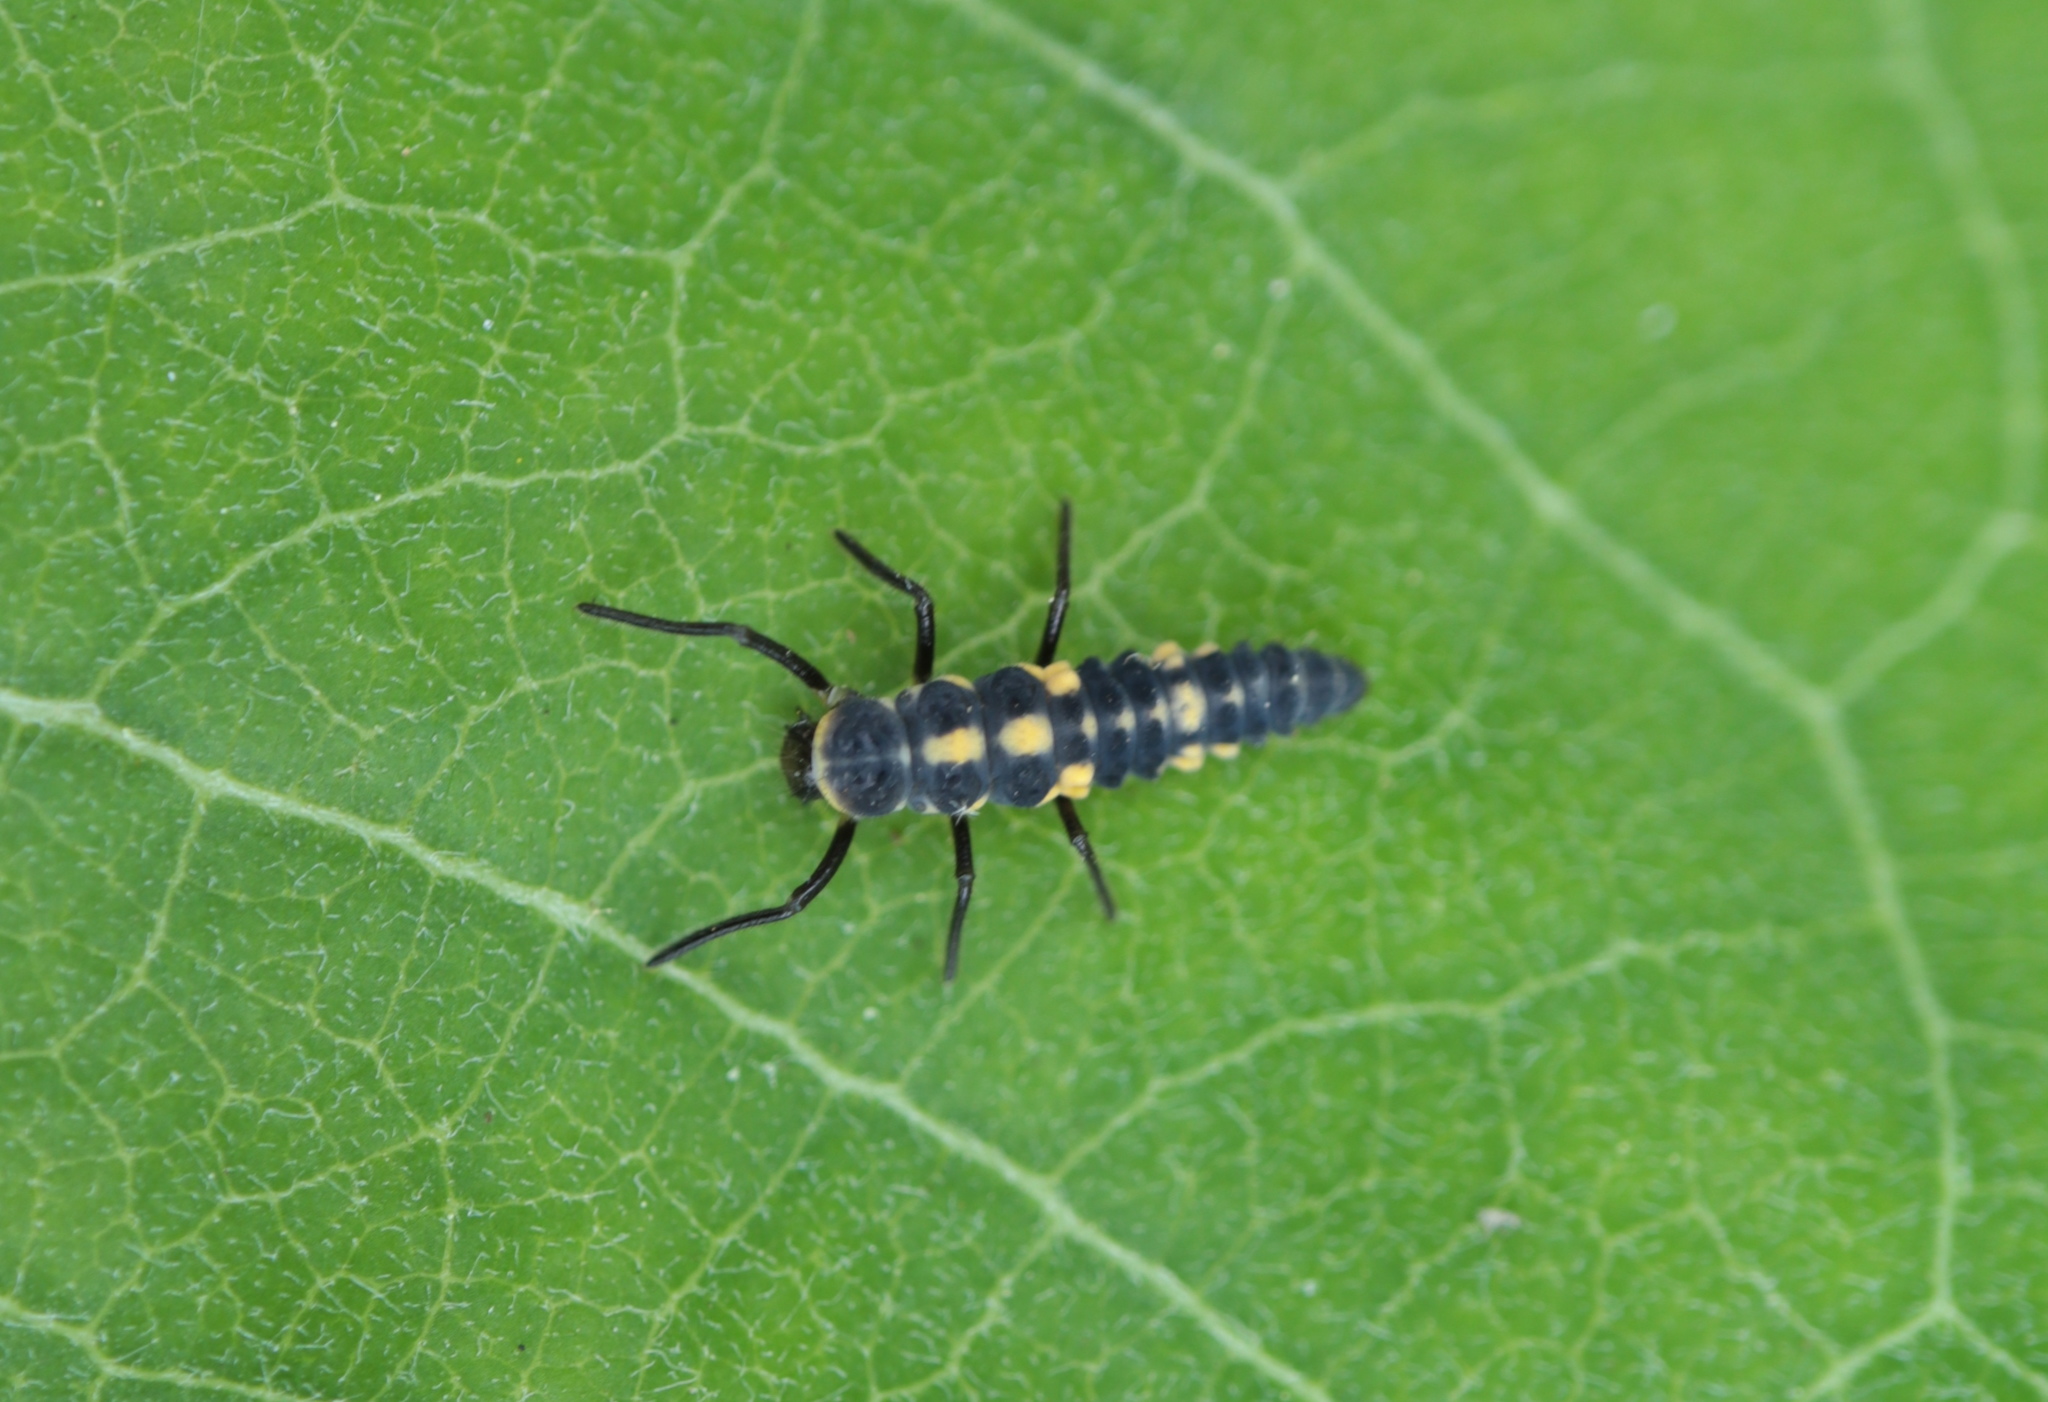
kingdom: Animalia
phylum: Arthropoda
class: Insecta
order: Coleoptera
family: Coccinellidae
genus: Coleomegilla
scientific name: Coleomegilla maculata
